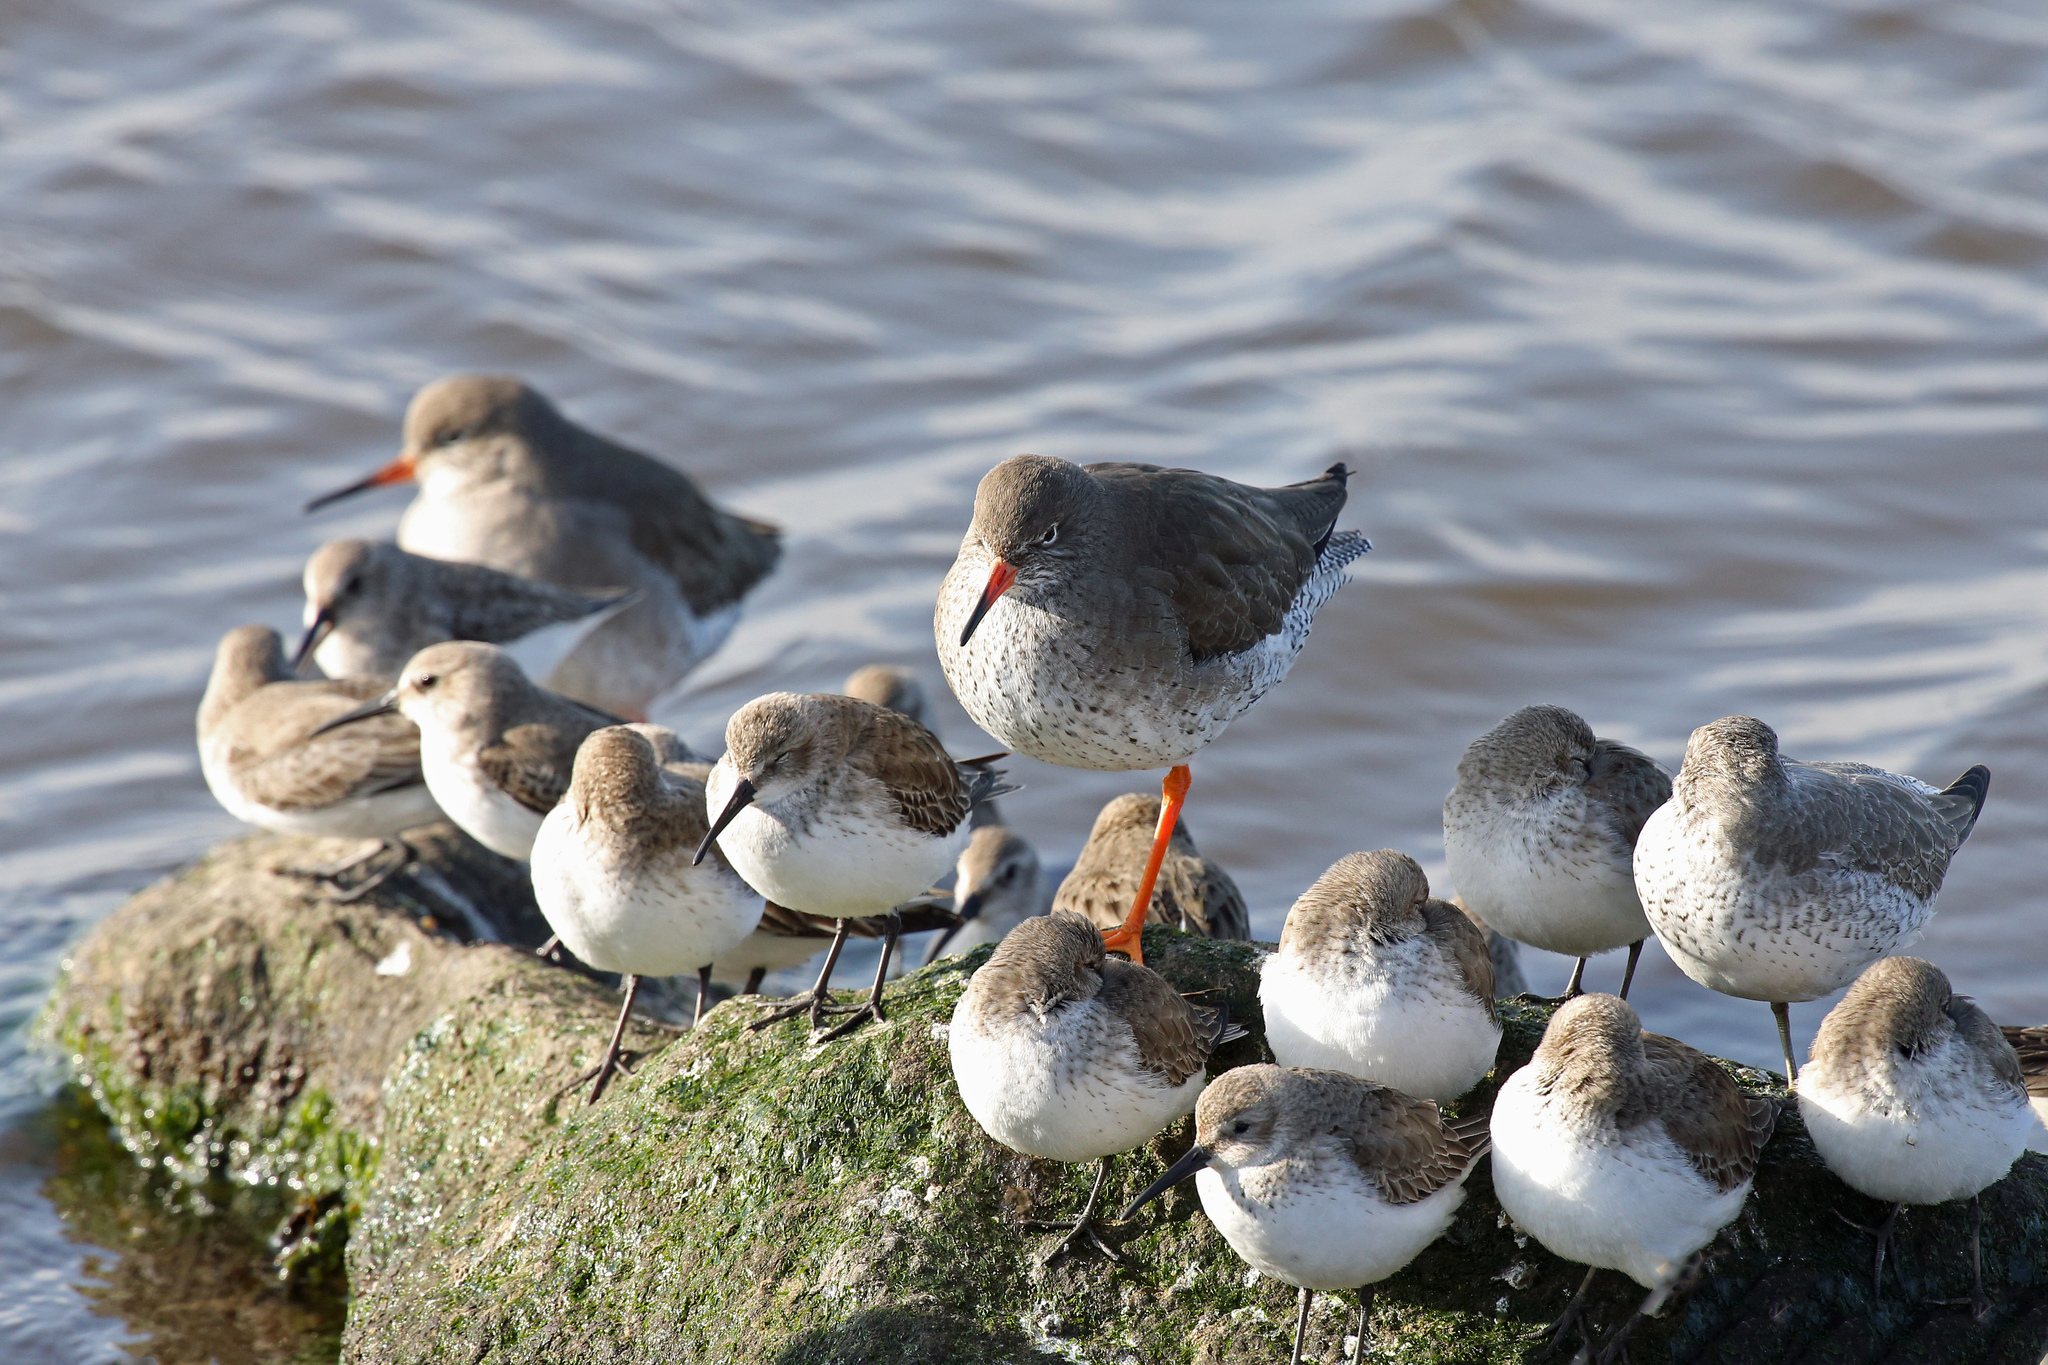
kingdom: Animalia
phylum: Chordata
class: Aves
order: Charadriiformes
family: Scolopacidae
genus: Calidris
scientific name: Calidris alpina
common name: Dunlin
